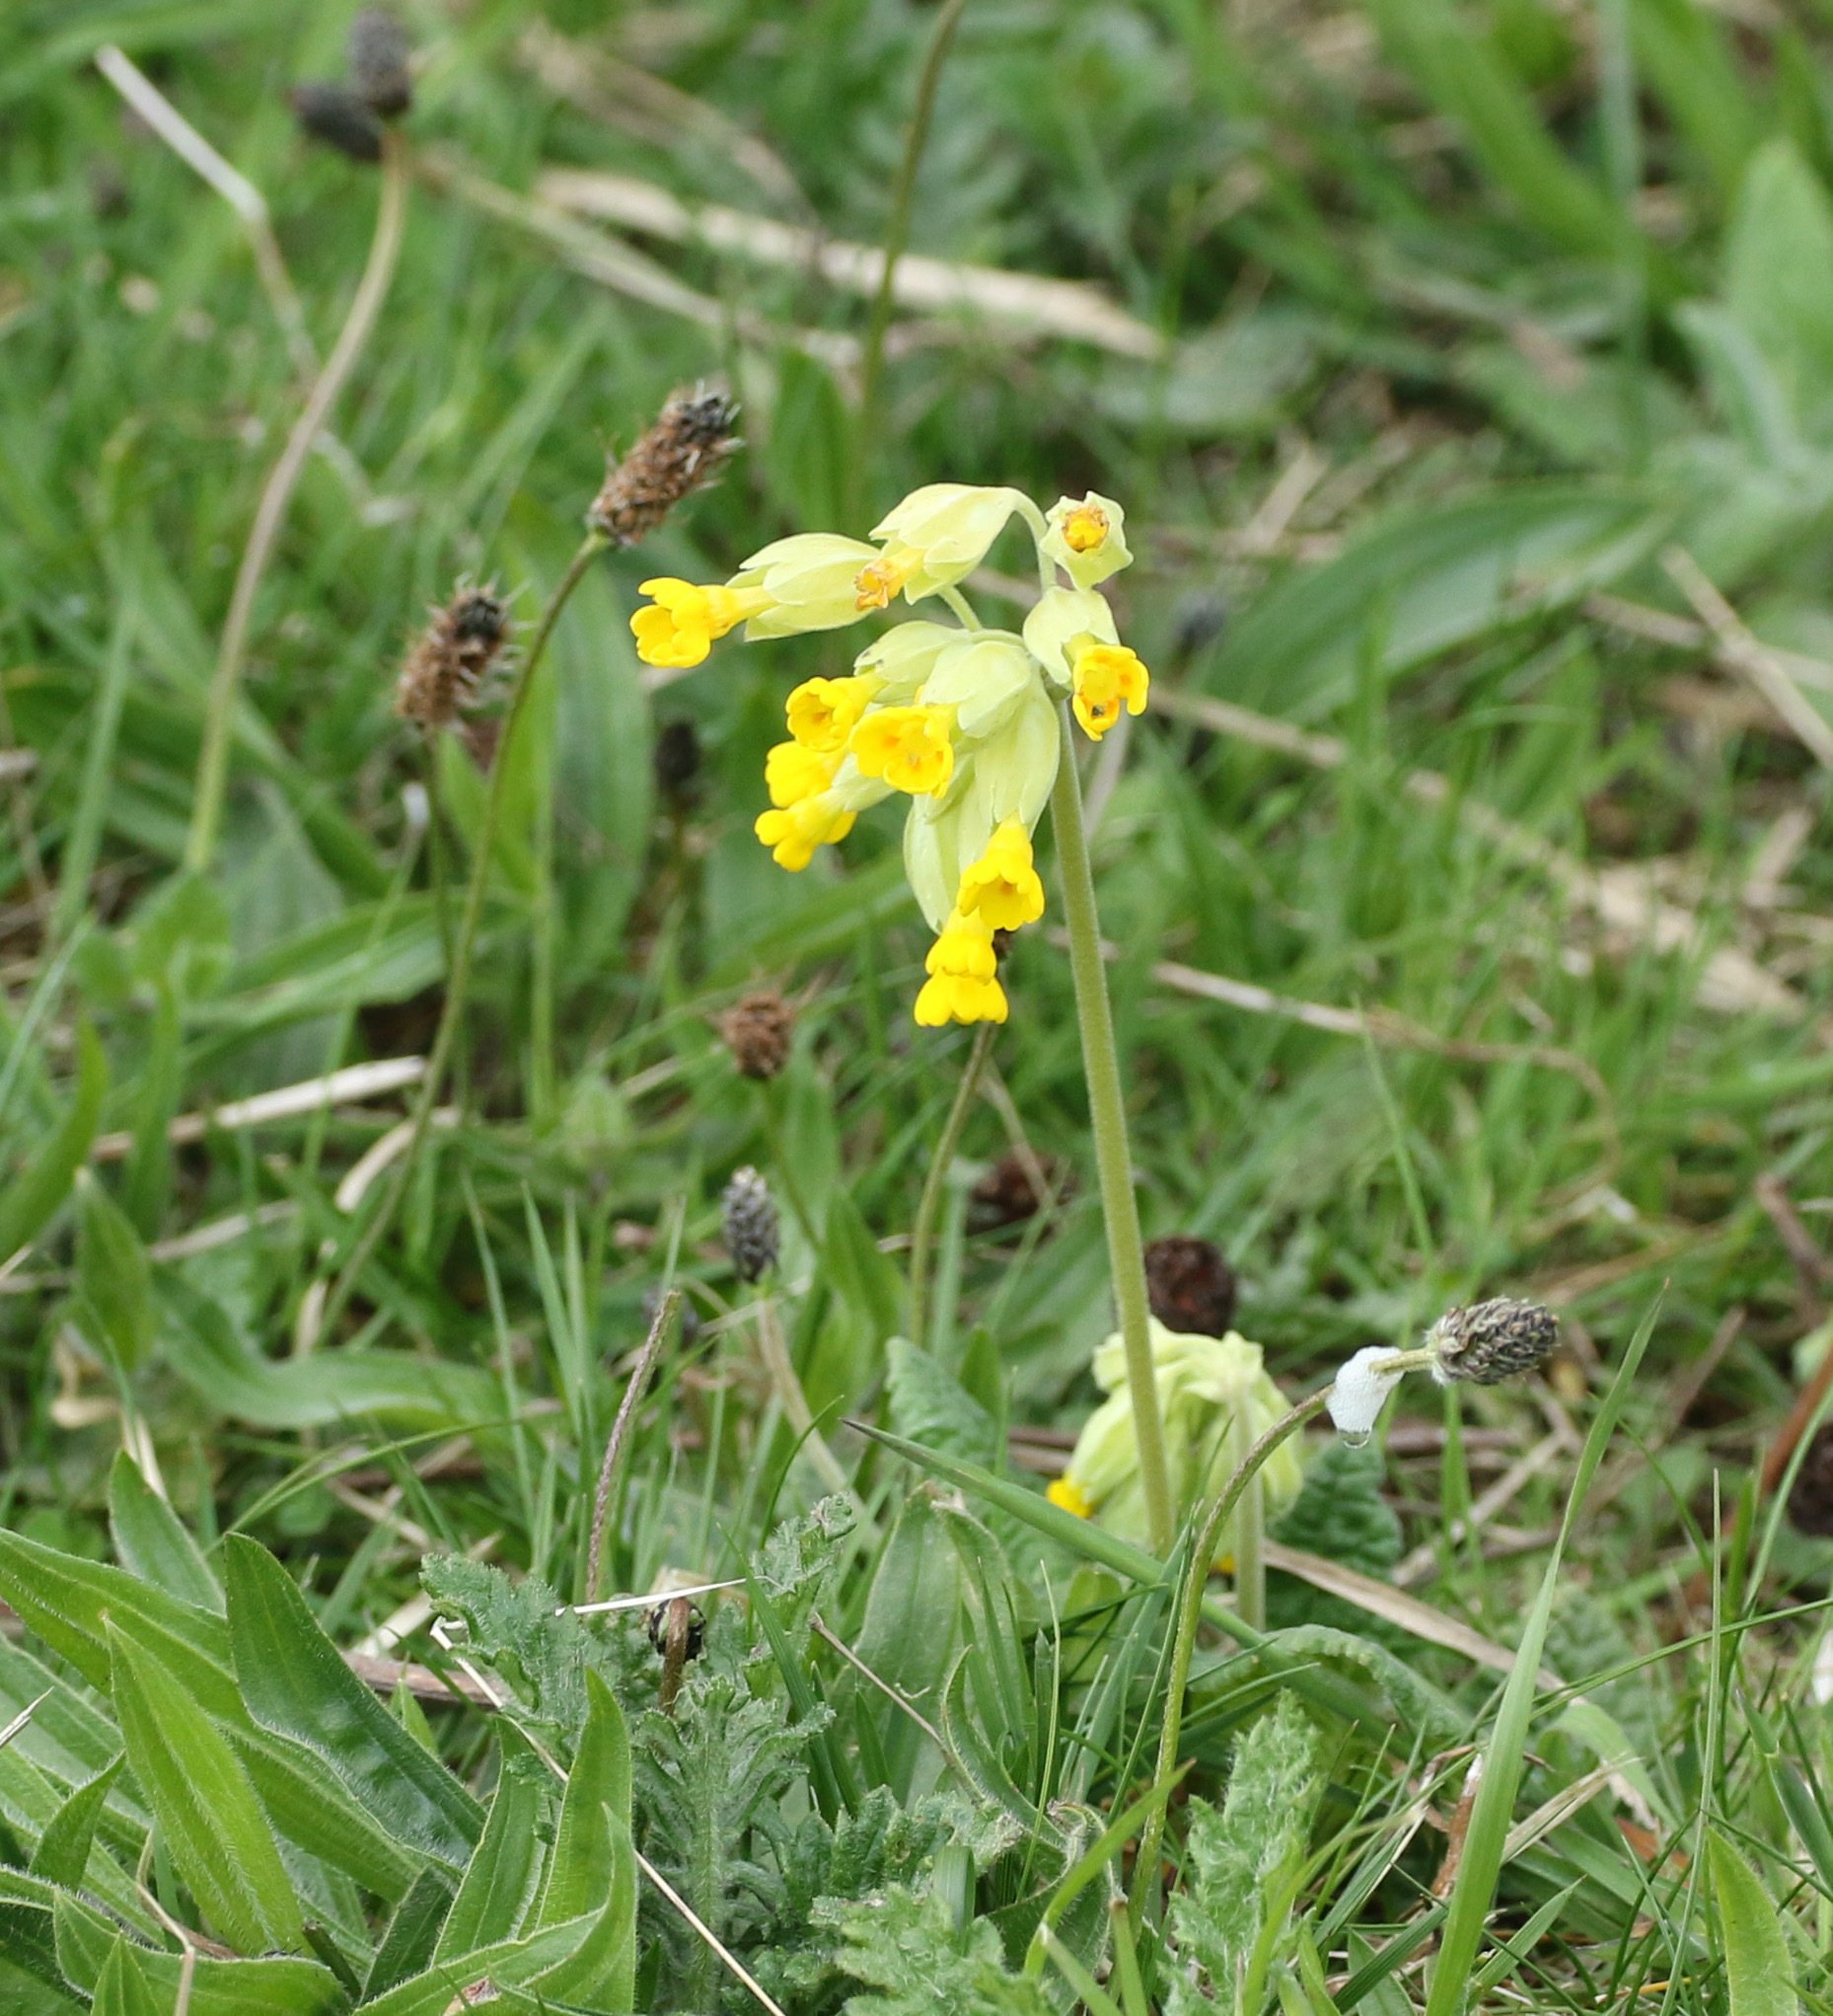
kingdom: Plantae
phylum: Tracheophyta
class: Magnoliopsida
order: Ericales
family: Primulaceae
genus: Primula
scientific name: Primula veris
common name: Cowslip
